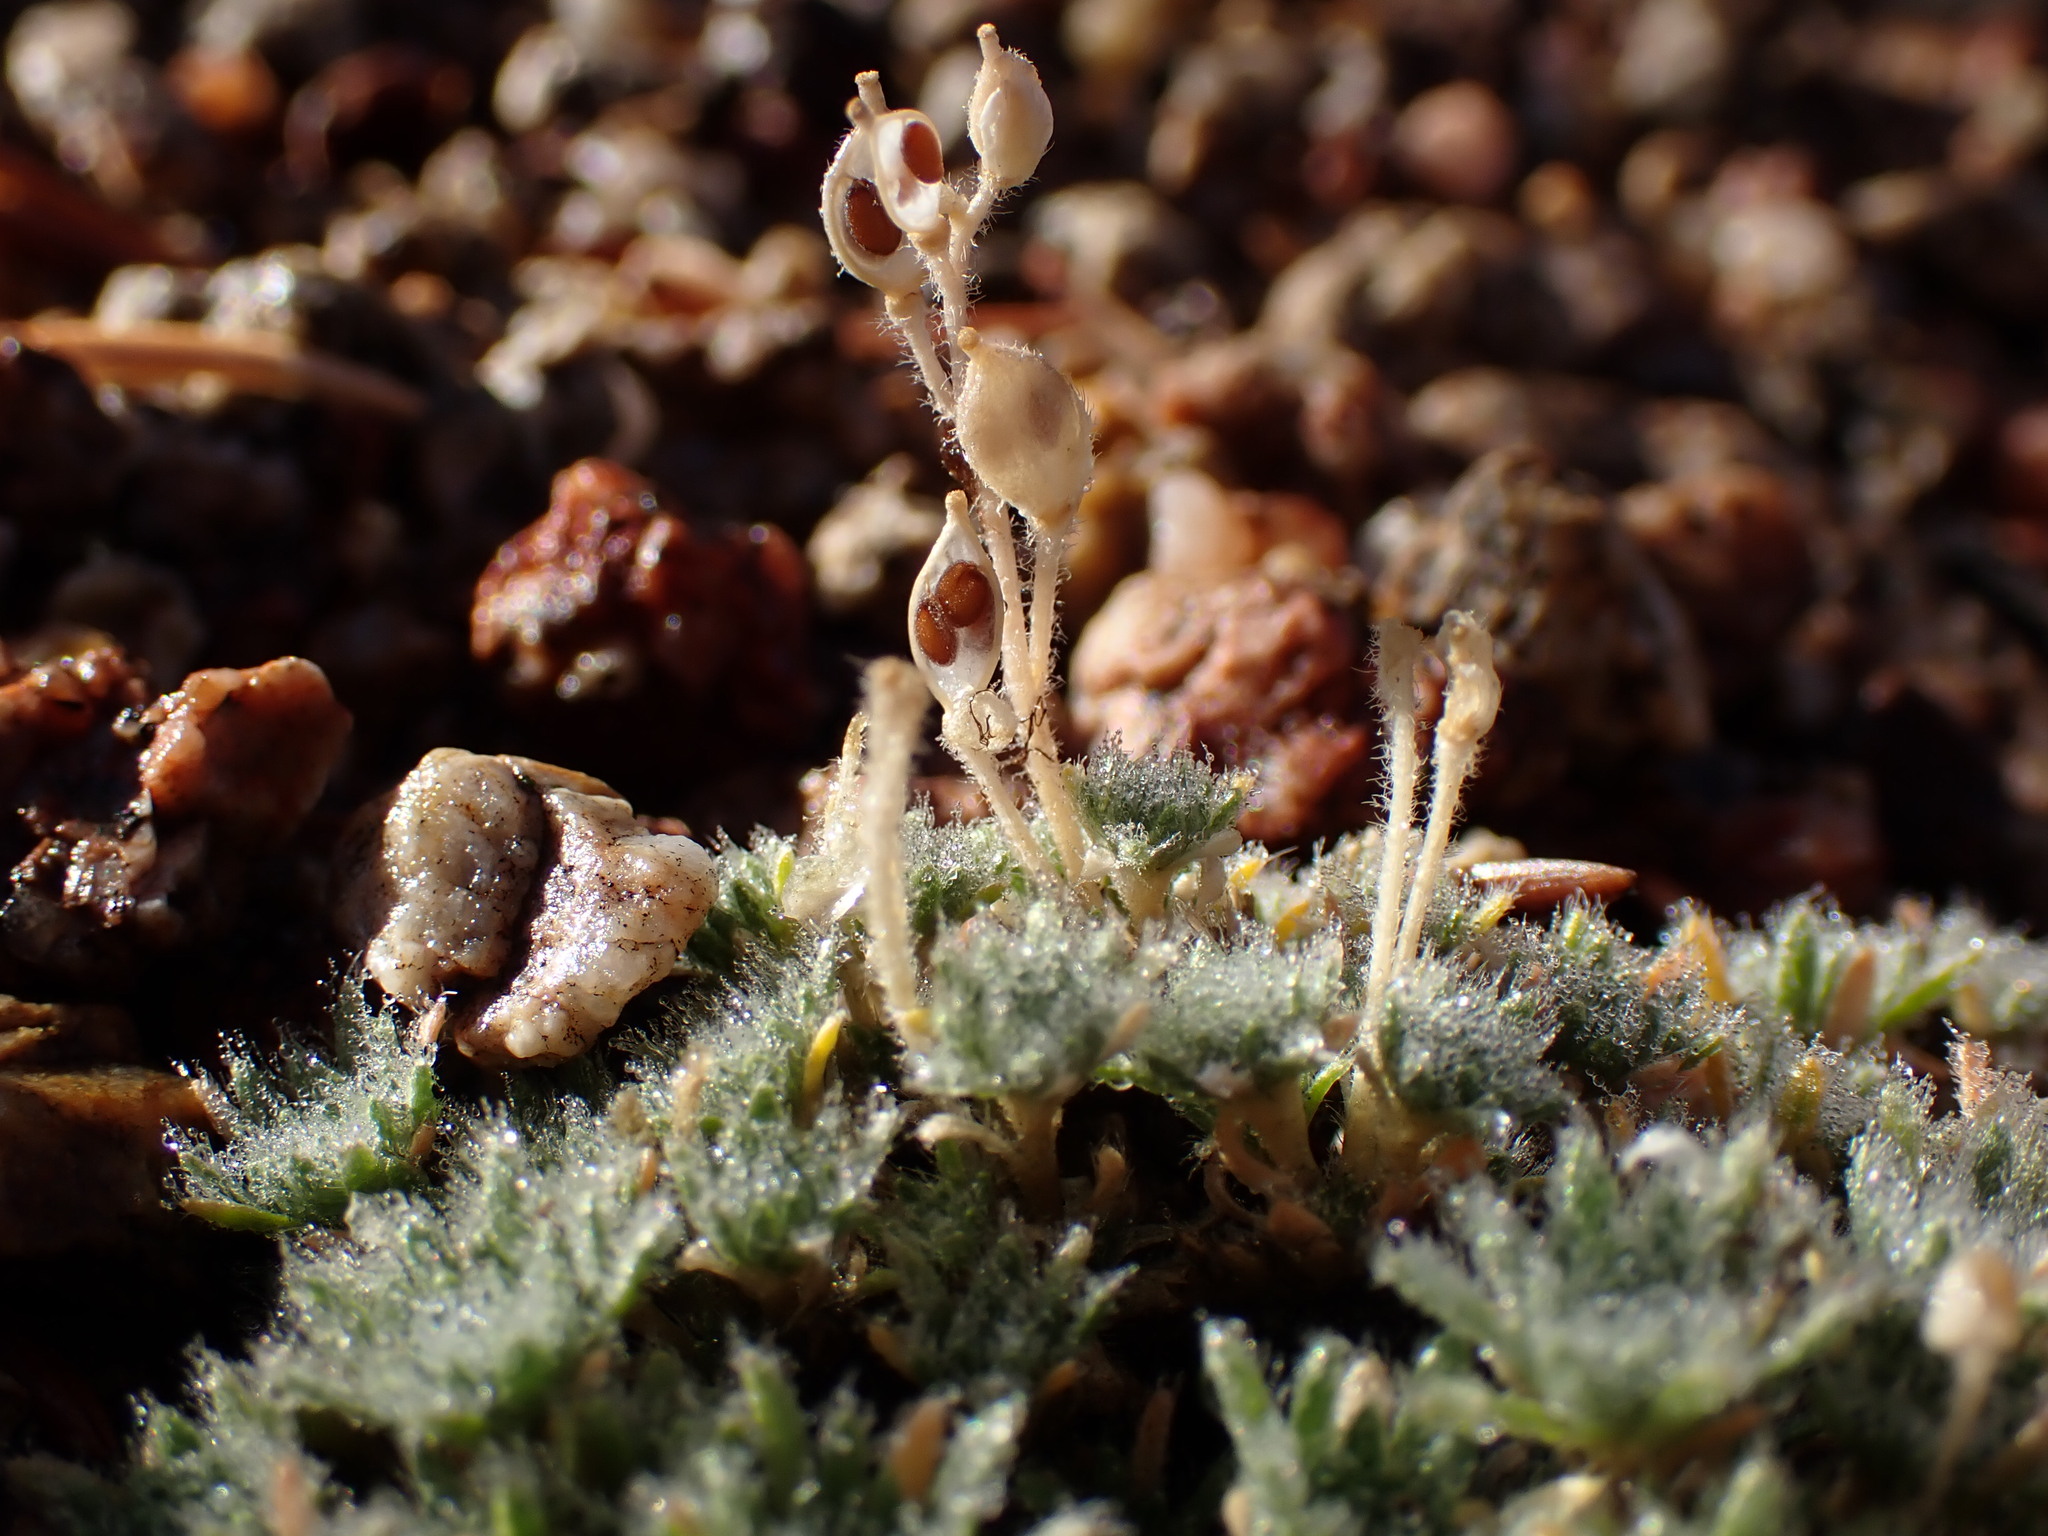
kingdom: Plantae
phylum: Tracheophyta
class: Magnoliopsida
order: Brassicales
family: Brassicaceae
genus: Draba
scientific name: Draba densifolia
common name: Nuttall's draba
